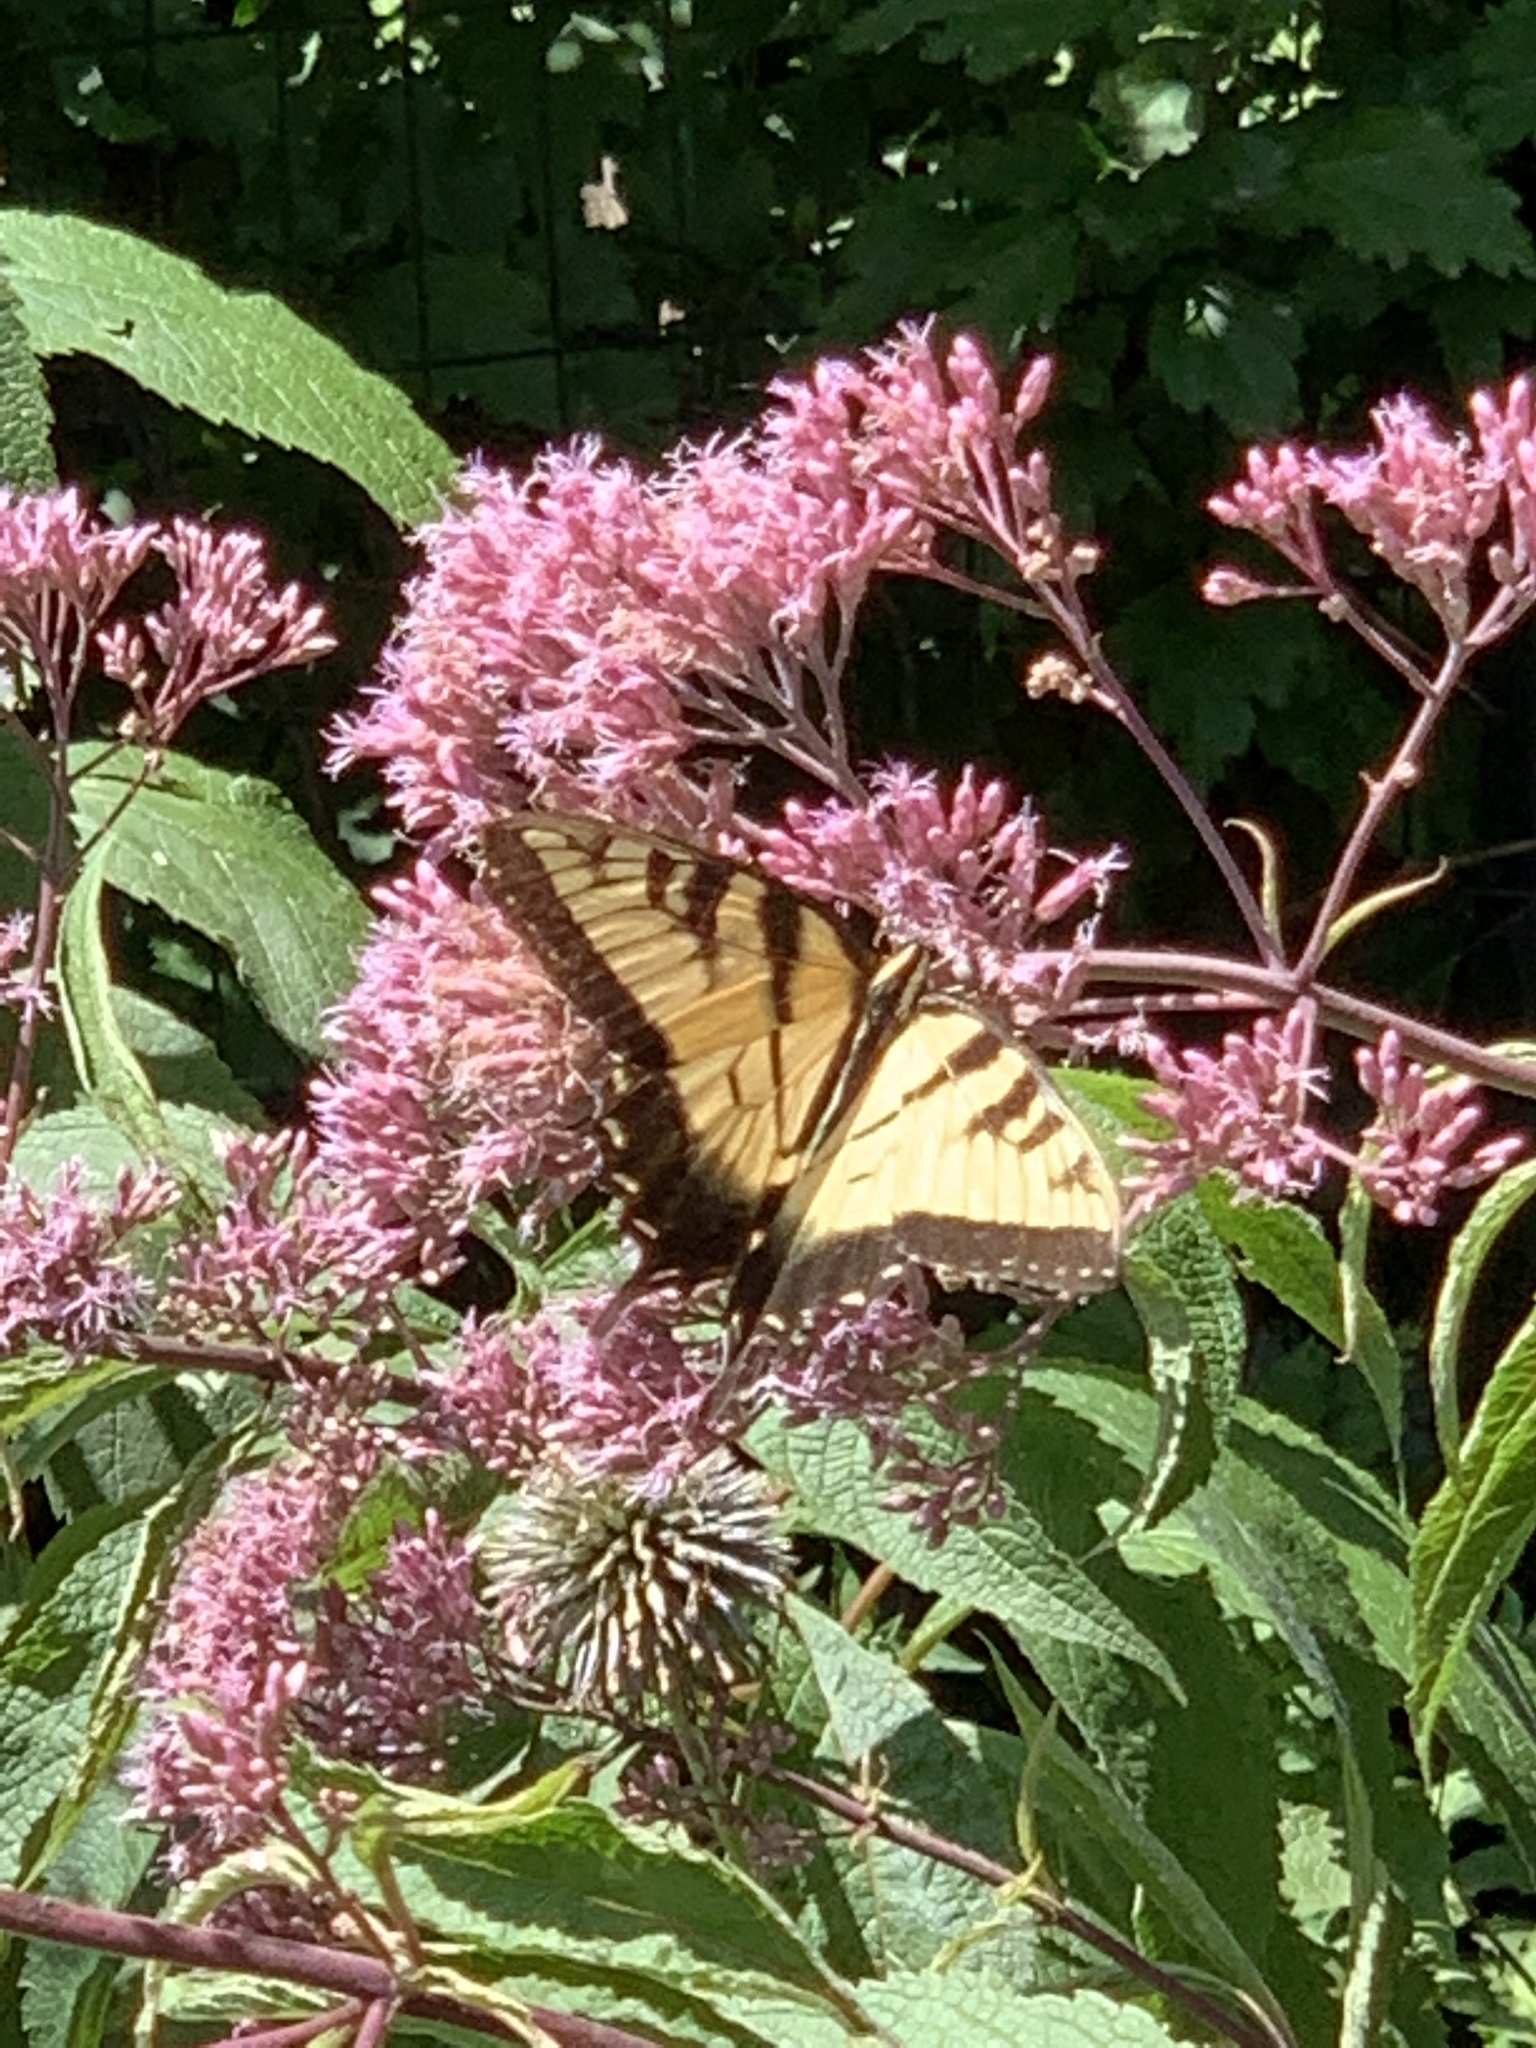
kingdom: Animalia
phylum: Arthropoda
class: Insecta
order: Lepidoptera
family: Papilionidae
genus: Papilio
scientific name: Papilio glaucus
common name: Tiger swallowtail
